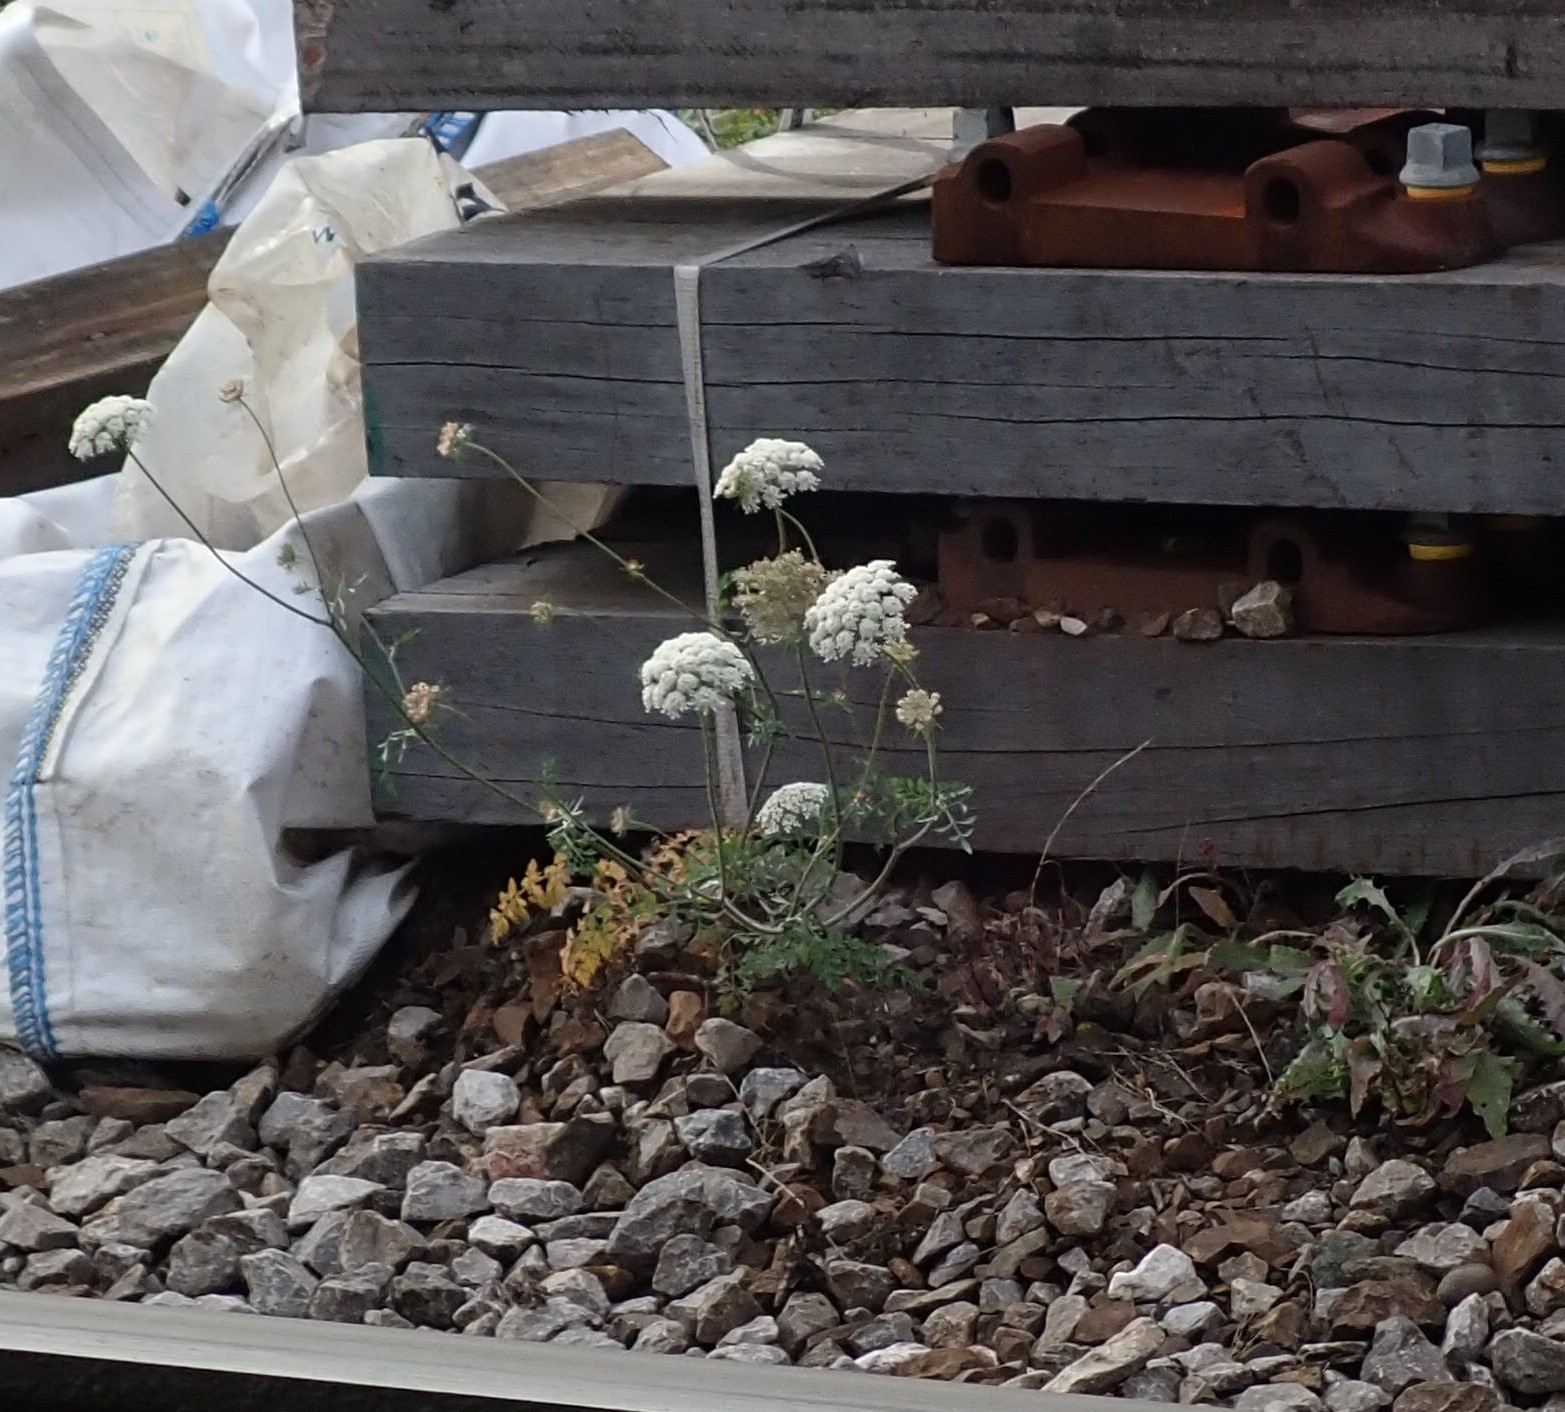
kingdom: Plantae
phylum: Tracheophyta
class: Magnoliopsida
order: Apiales
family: Apiaceae
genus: Daucus
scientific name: Daucus carota
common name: Wild carrot
